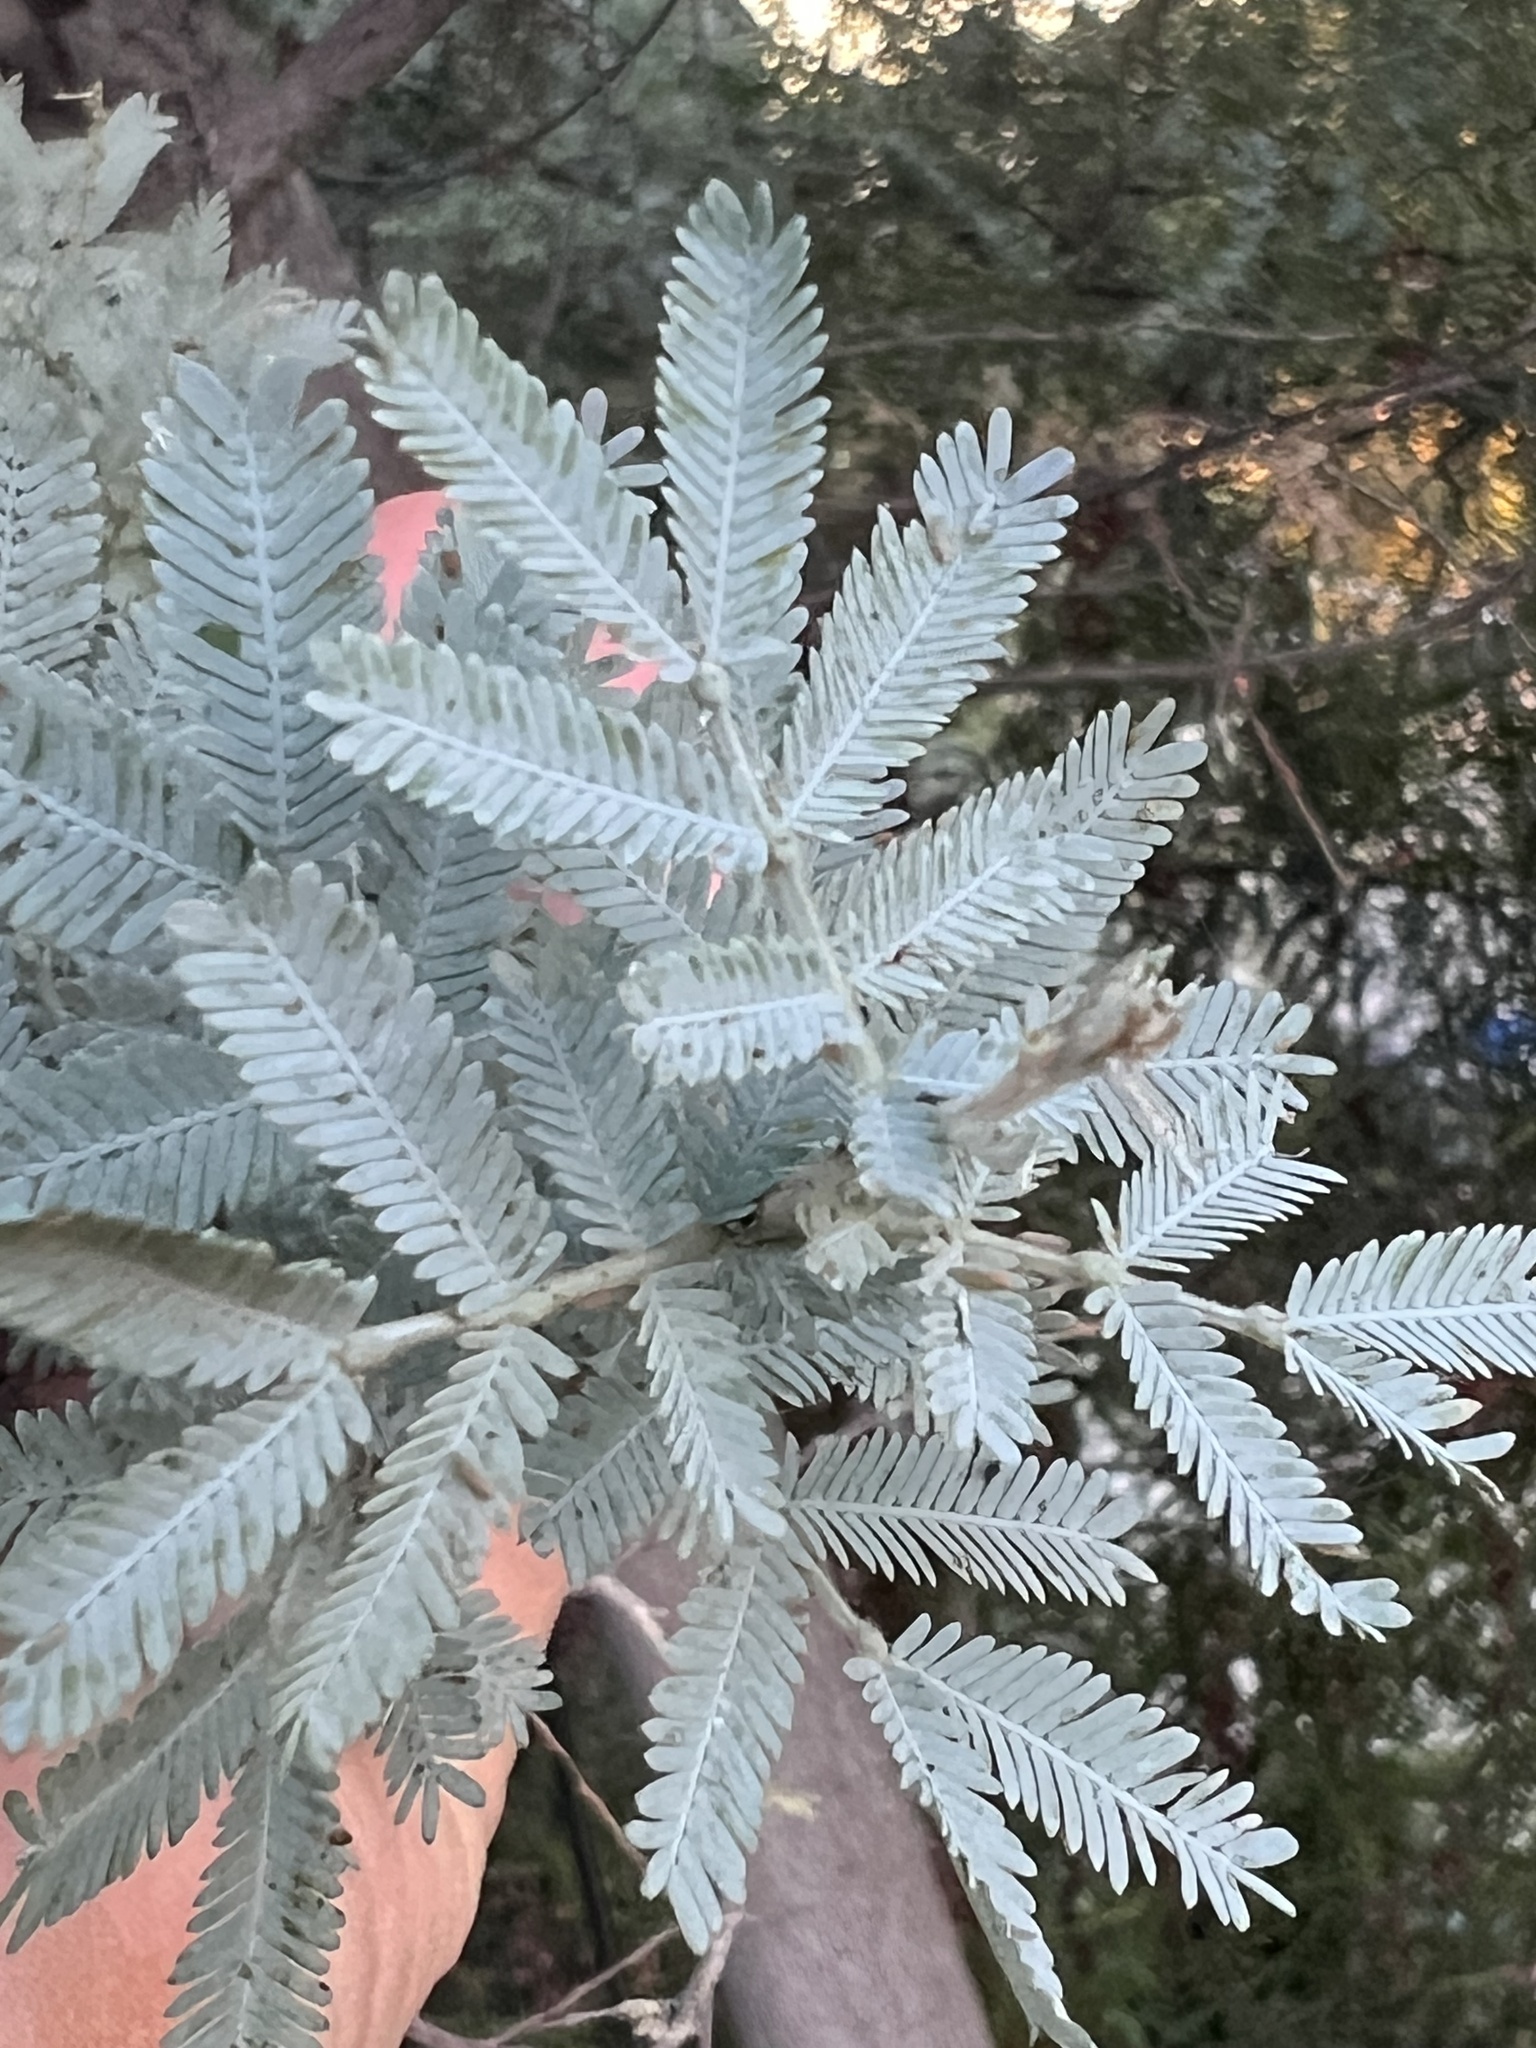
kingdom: Plantae
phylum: Tracheophyta
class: Magnoliopsida
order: Fabales
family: Fabaceae
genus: Acacia
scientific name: Acacia baileyana
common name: Cootamundra wattle
